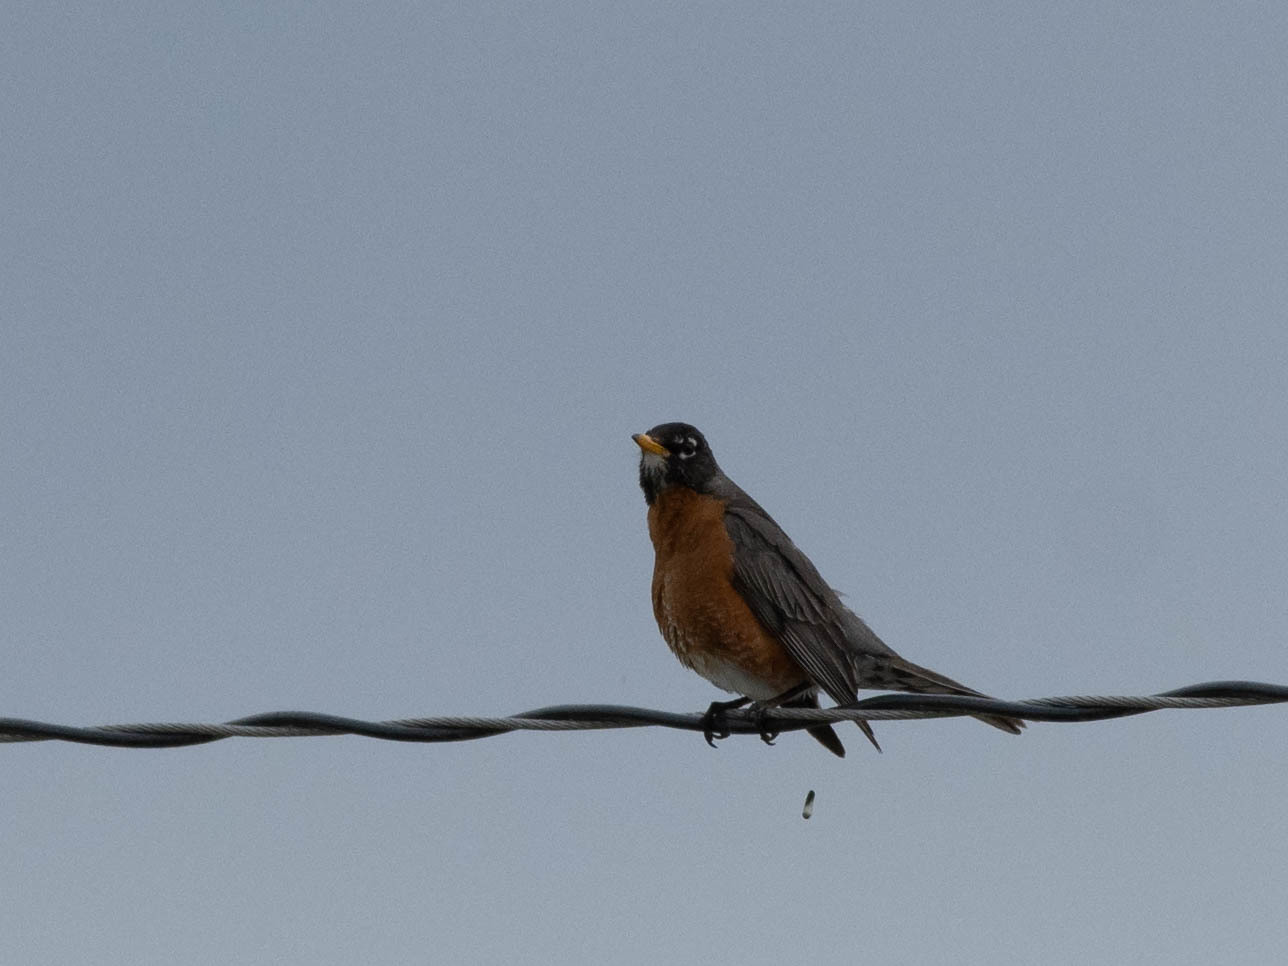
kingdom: Animalia
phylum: Chordata
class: Aves
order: Passeriformes
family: Turdidae
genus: Turdus
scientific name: Turdus migratorius
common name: American robin
